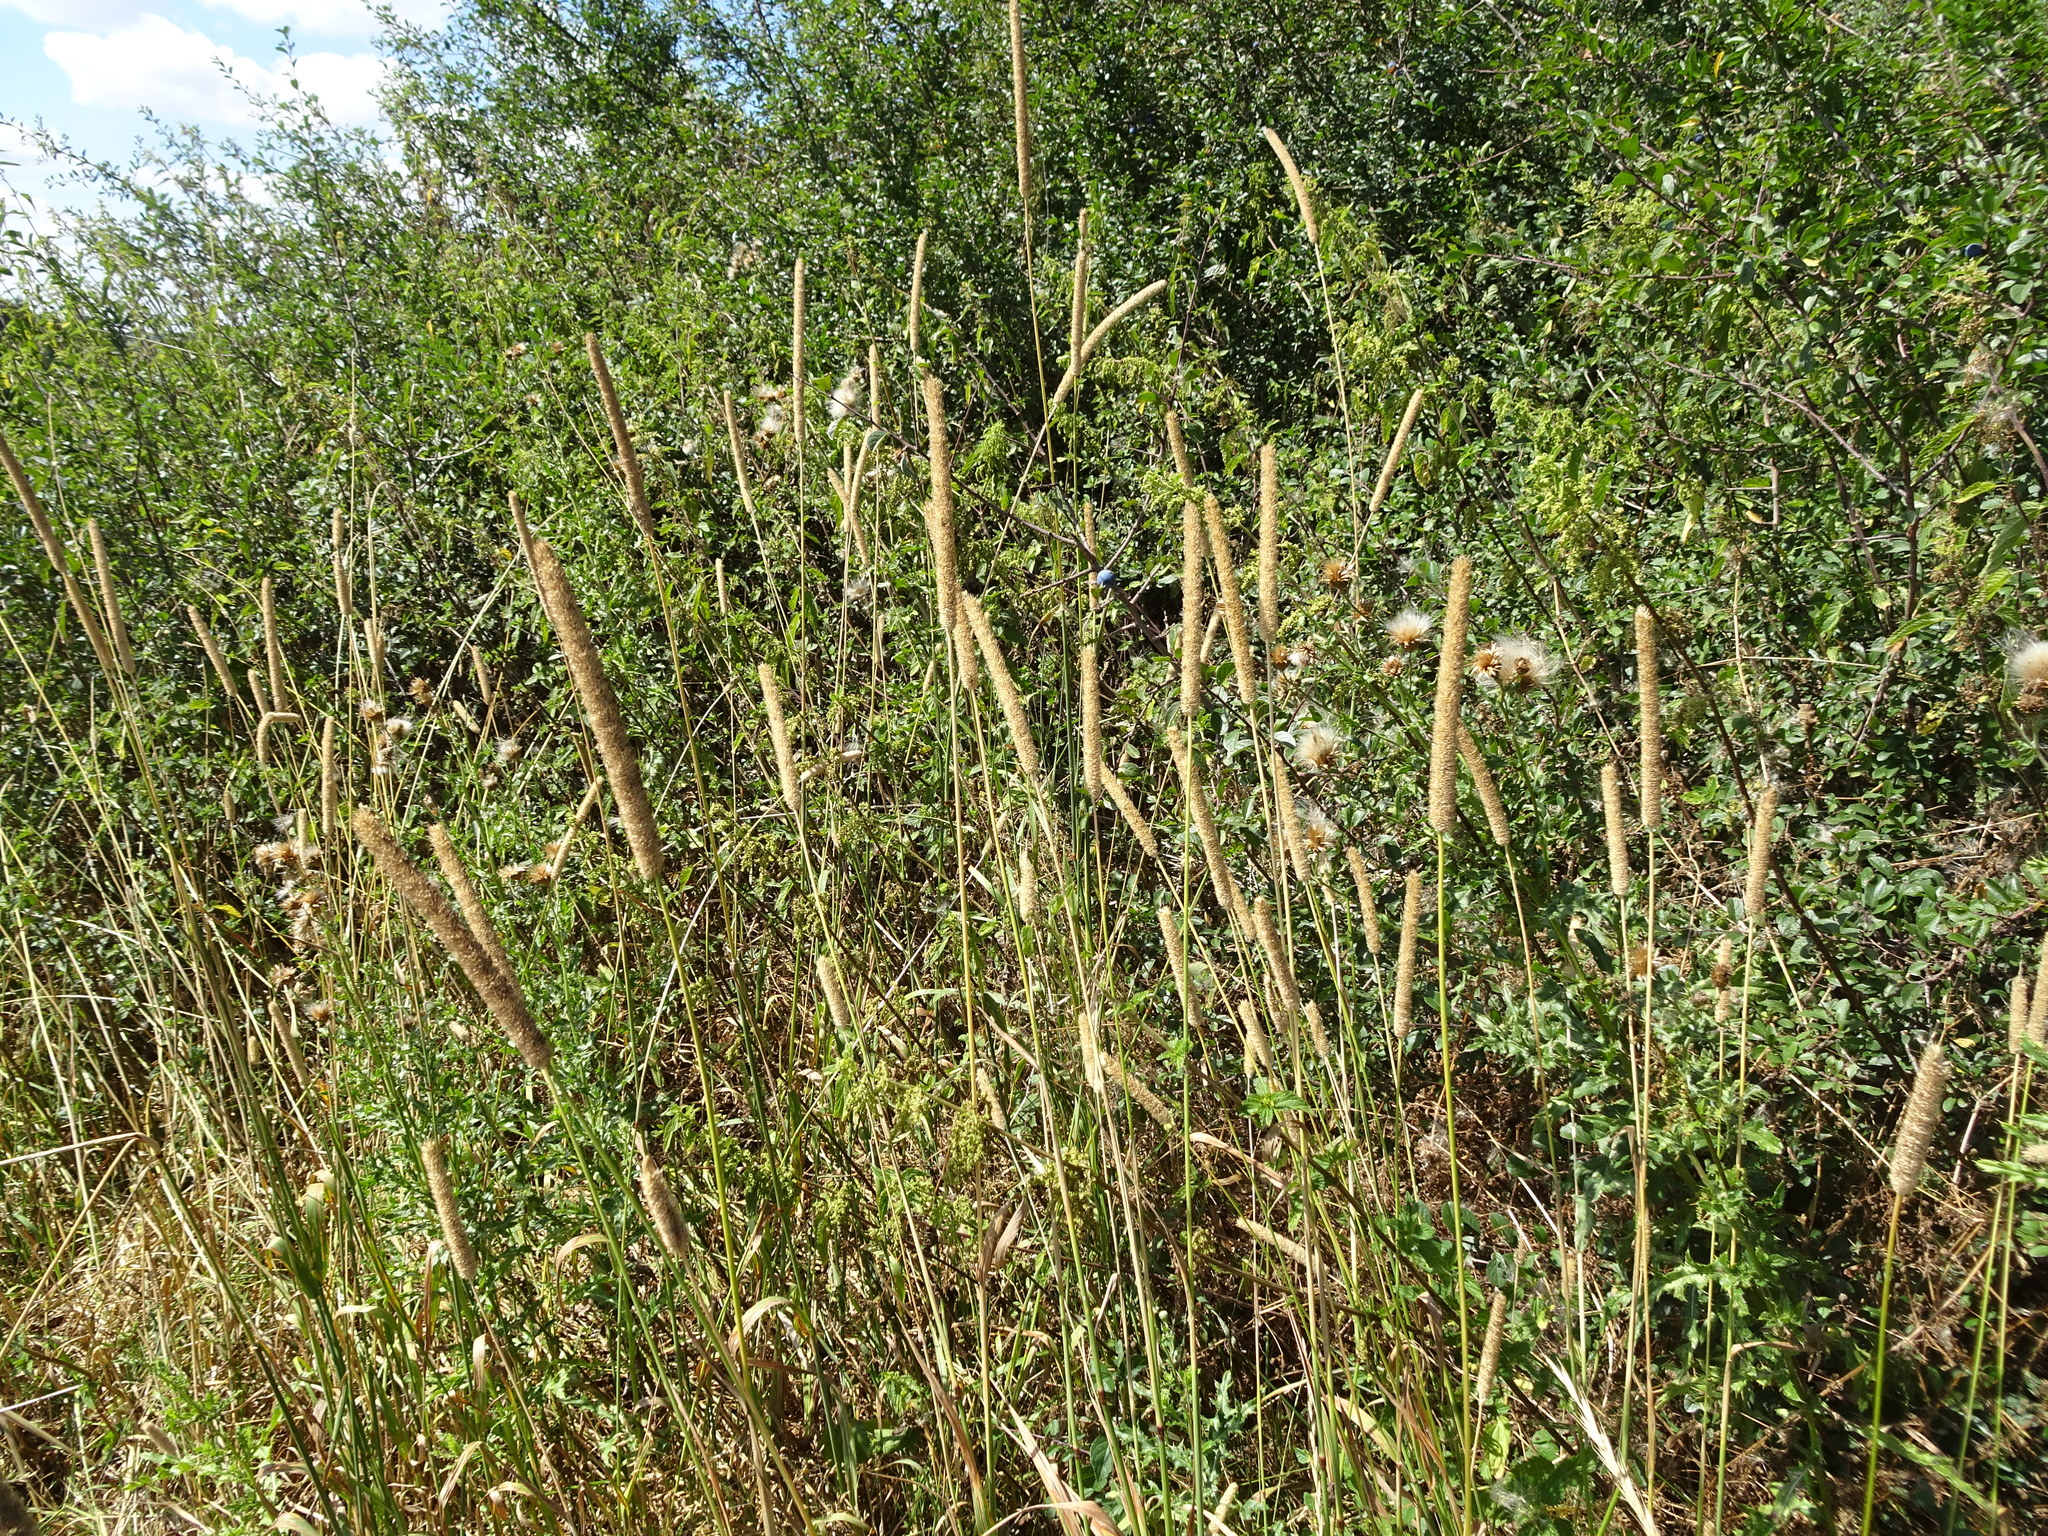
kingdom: Plantae
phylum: Tracheophyta
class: Liliopsida
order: Poales
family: Poaceae
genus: Phleum
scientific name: Phleum pratense
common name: Timothy grass
